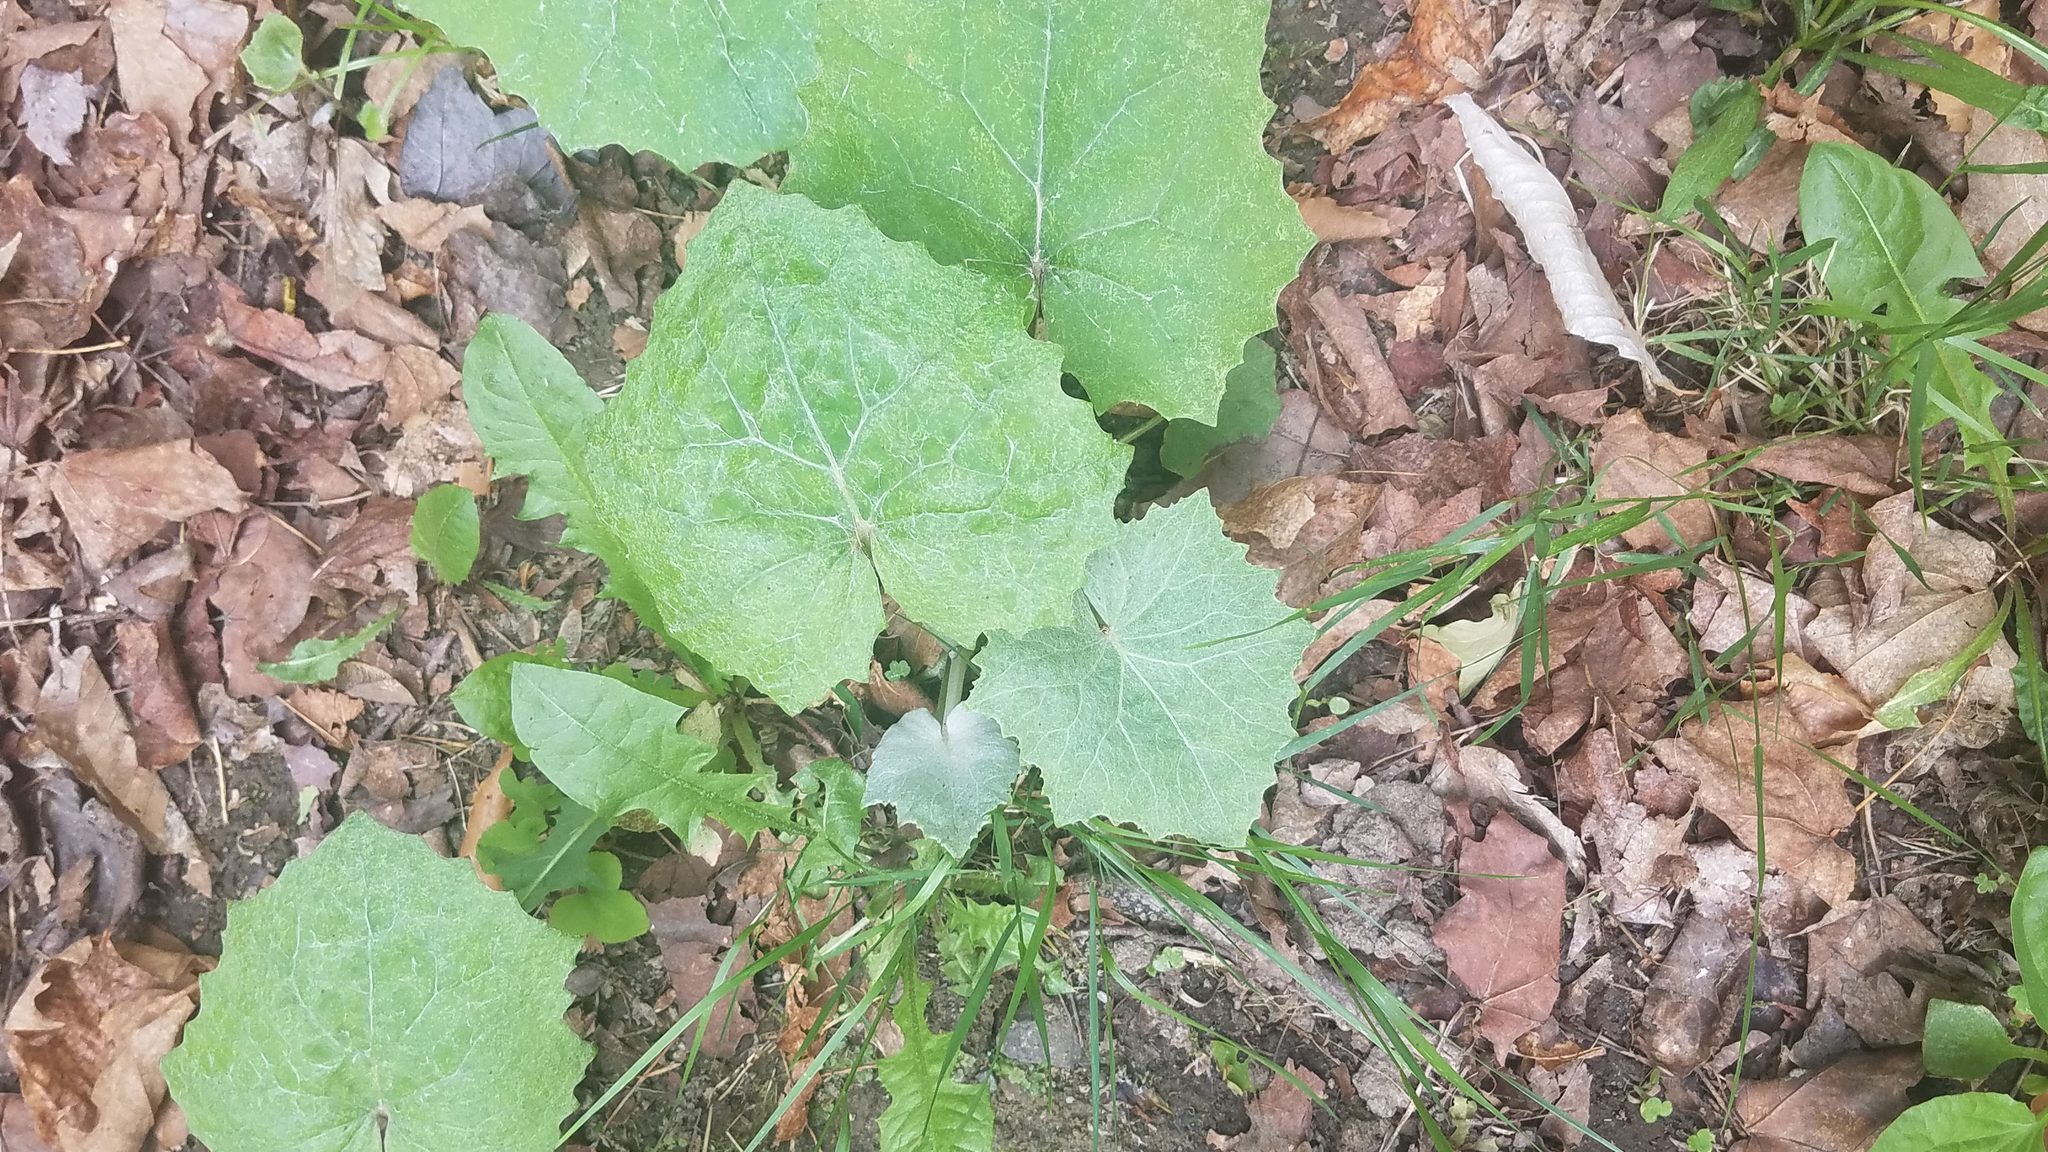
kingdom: Plantae
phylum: Tracheophyta
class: Magnoliopsida
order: Asterales
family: Asteraceae
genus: Tussilago
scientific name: Tussilago farfara
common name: Coltsfoot
